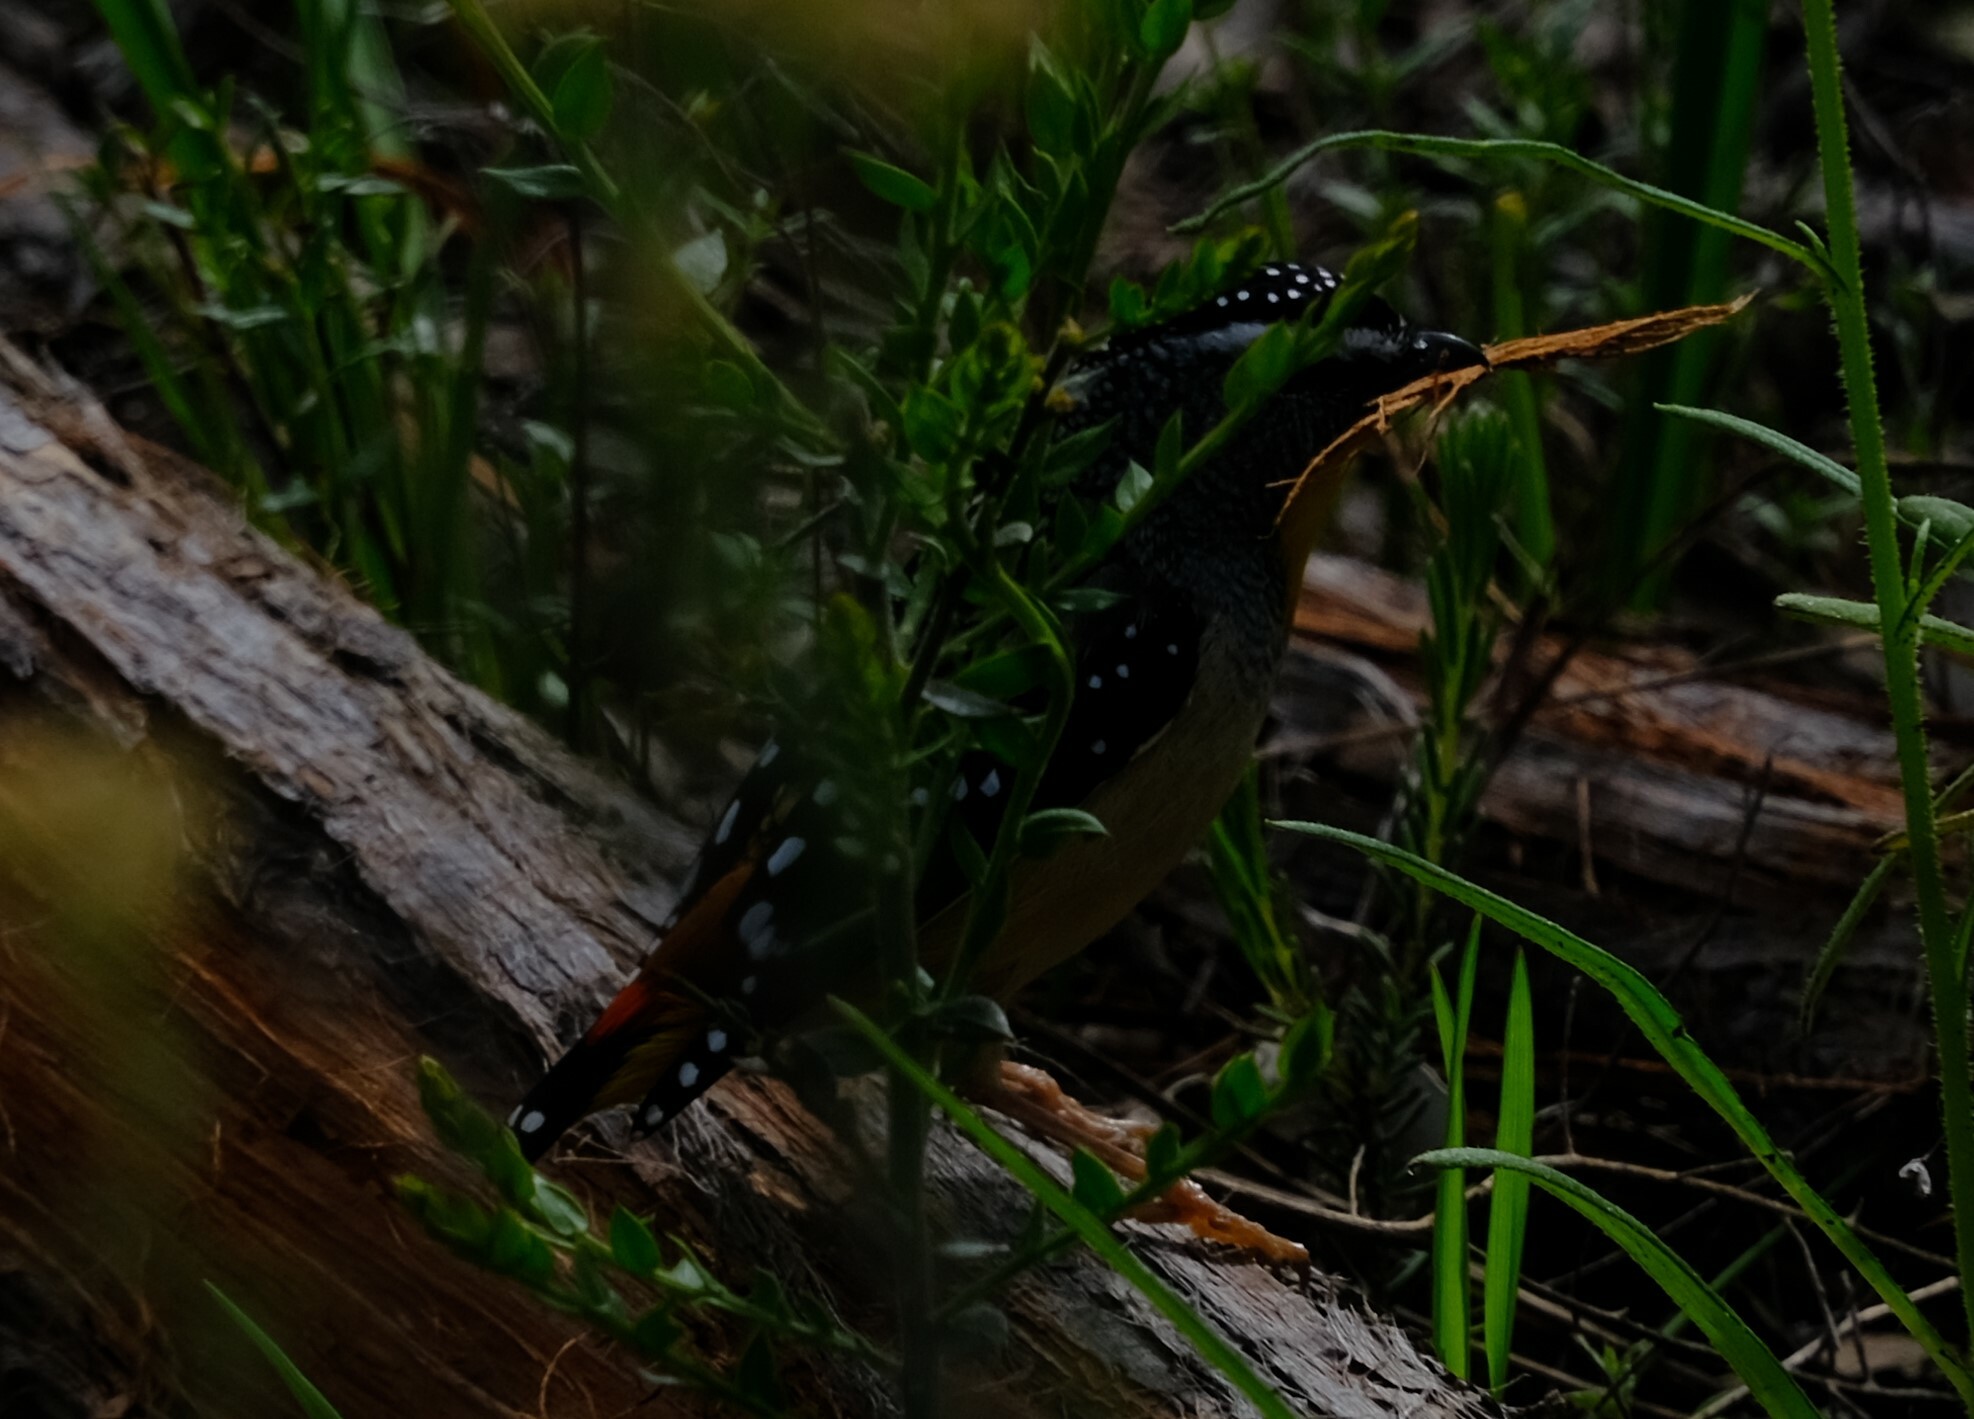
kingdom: Animalia
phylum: Chordata
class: Aves
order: Passeriformes
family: Pardalotidae
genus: Pardalotus
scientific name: Pardalotus punctatus
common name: Spotted pardalote
